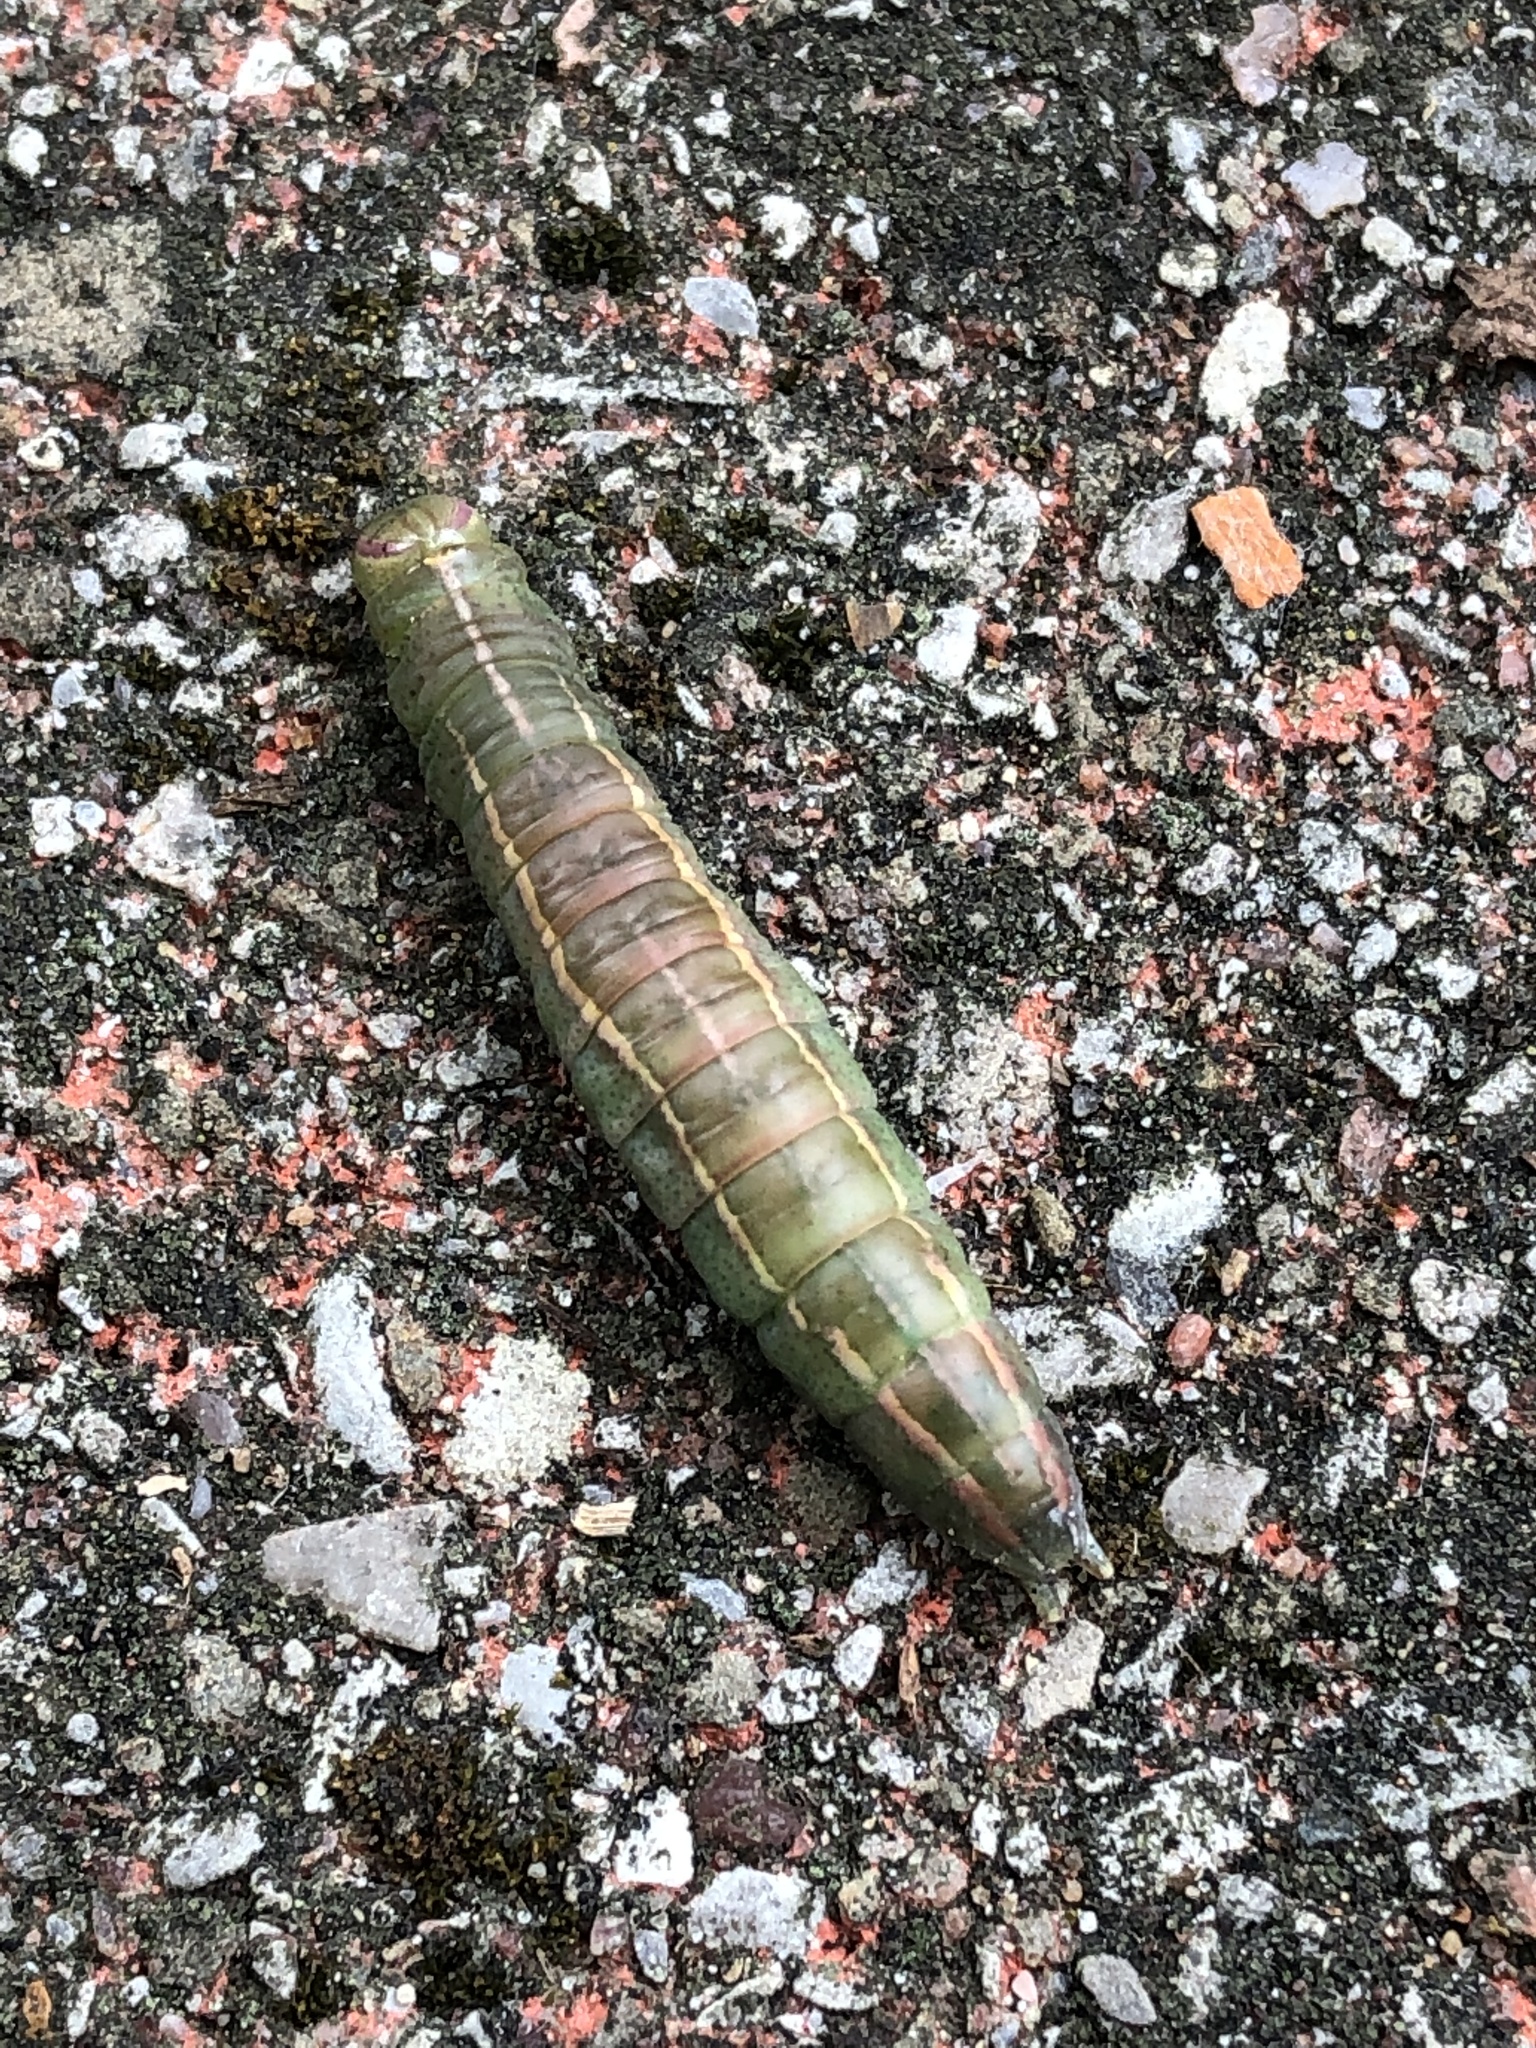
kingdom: Animalia
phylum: Arthropoda
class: Insecta
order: Lepidoptera
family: Notodontidae
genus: Disphragis
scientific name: Disphragis Cecrita guttivitta
